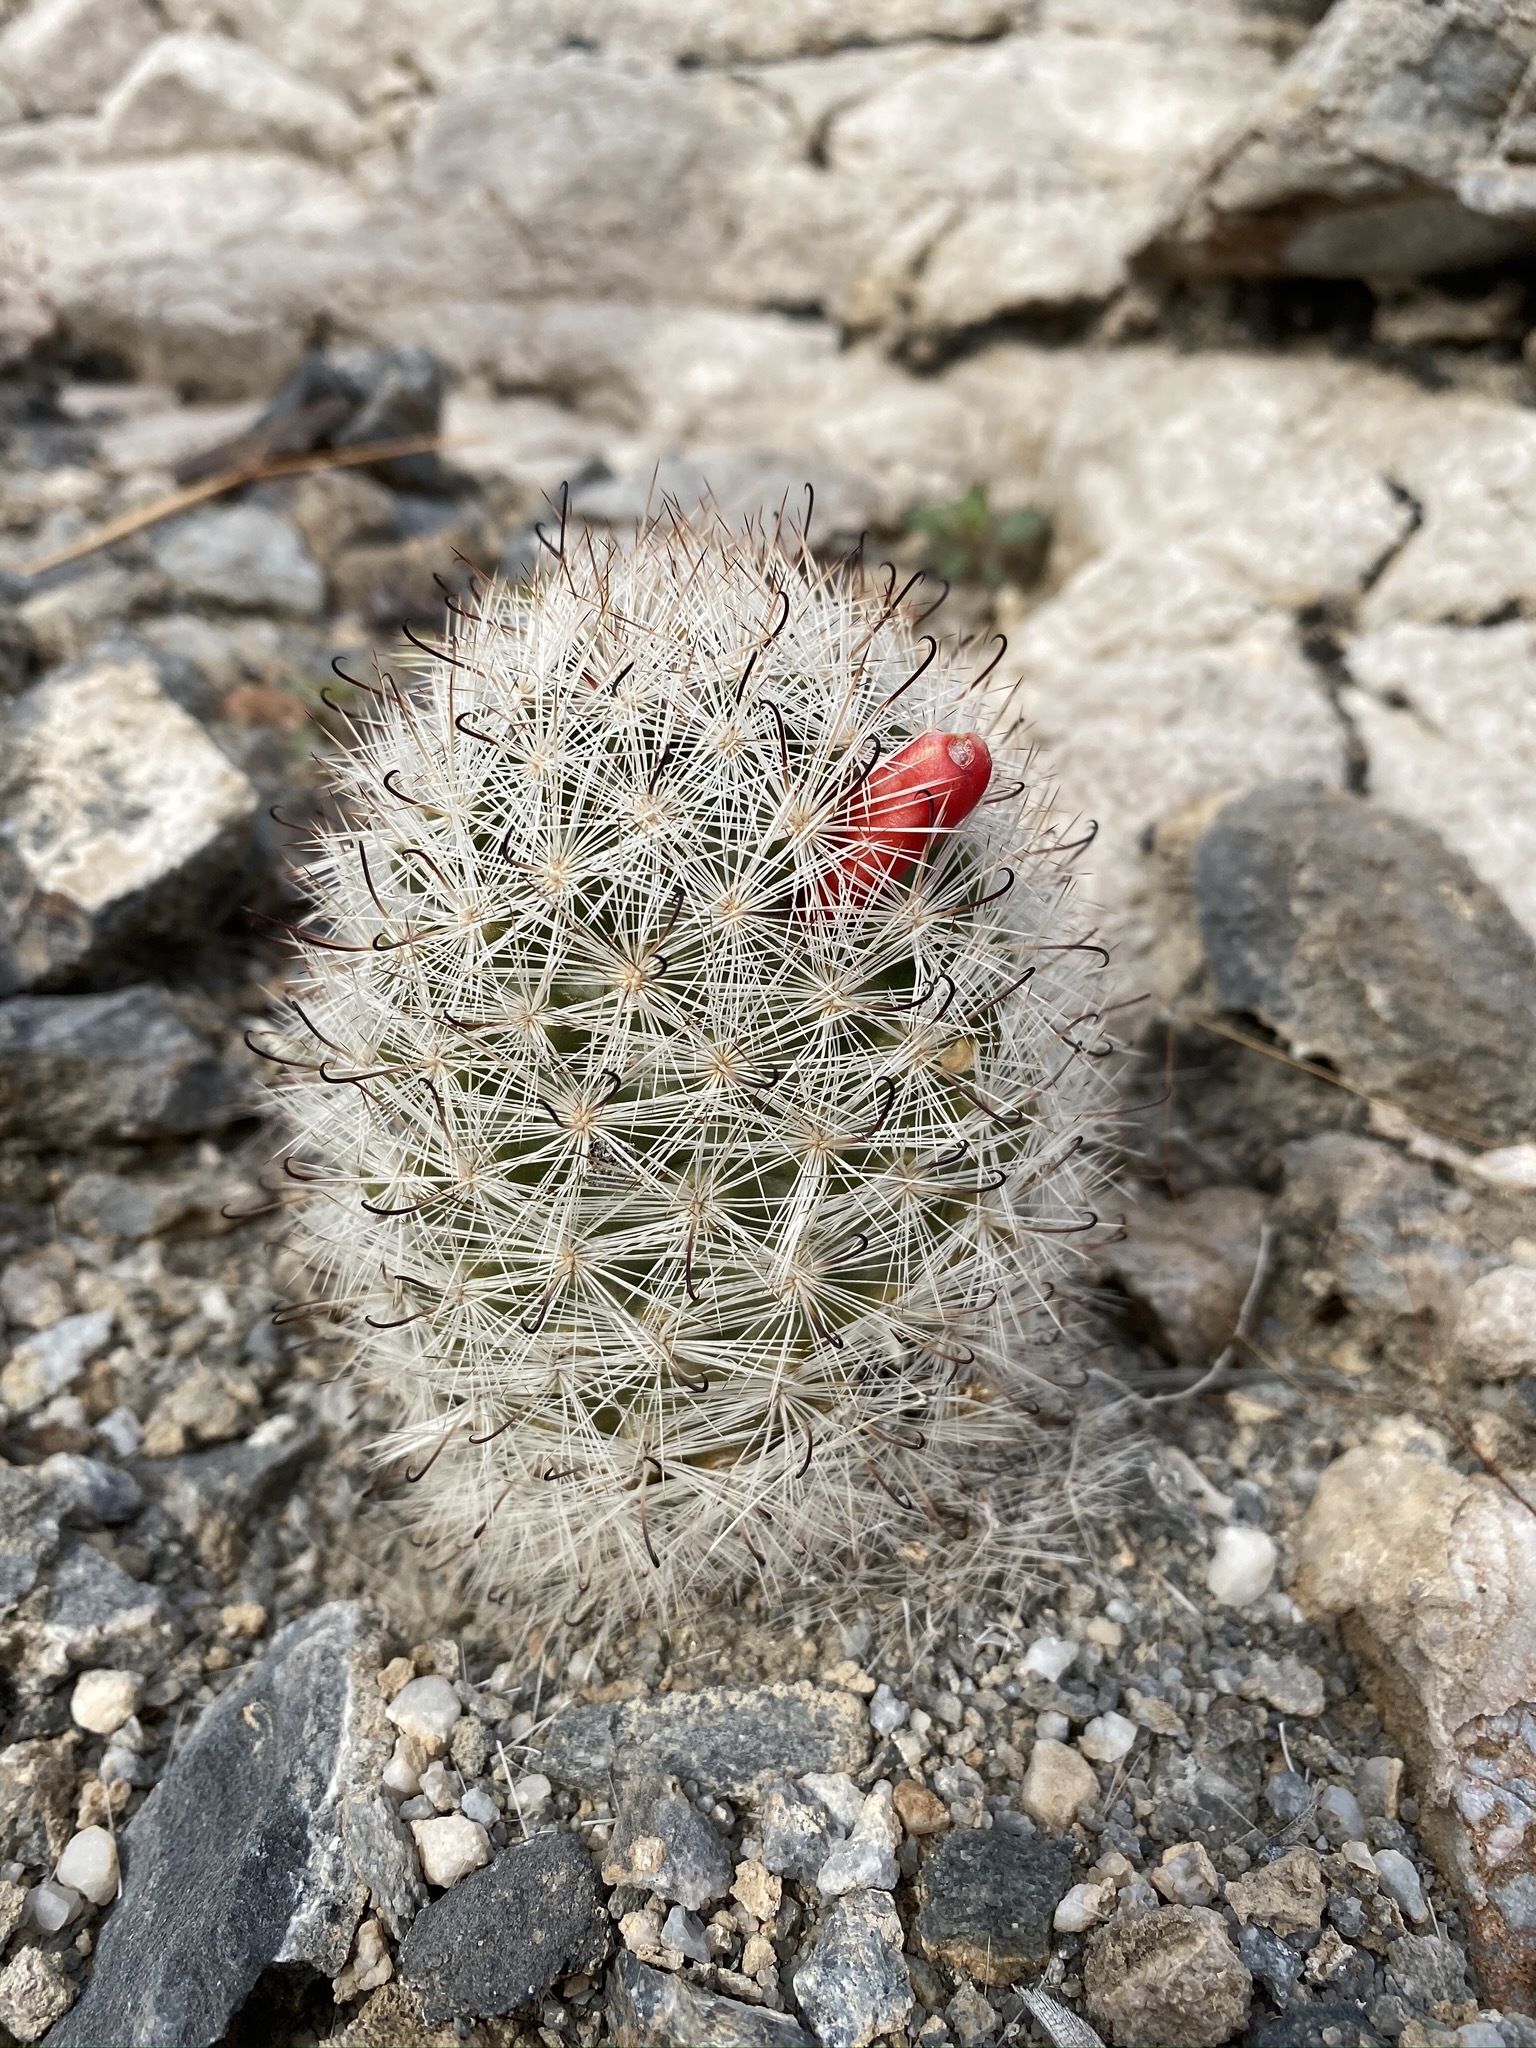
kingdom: Plantae
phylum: Tracheophyta
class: Magnoliopsida
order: Caryophyllales
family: Cactaceae
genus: Cochemiea
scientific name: Cochemiea tetrancistra
